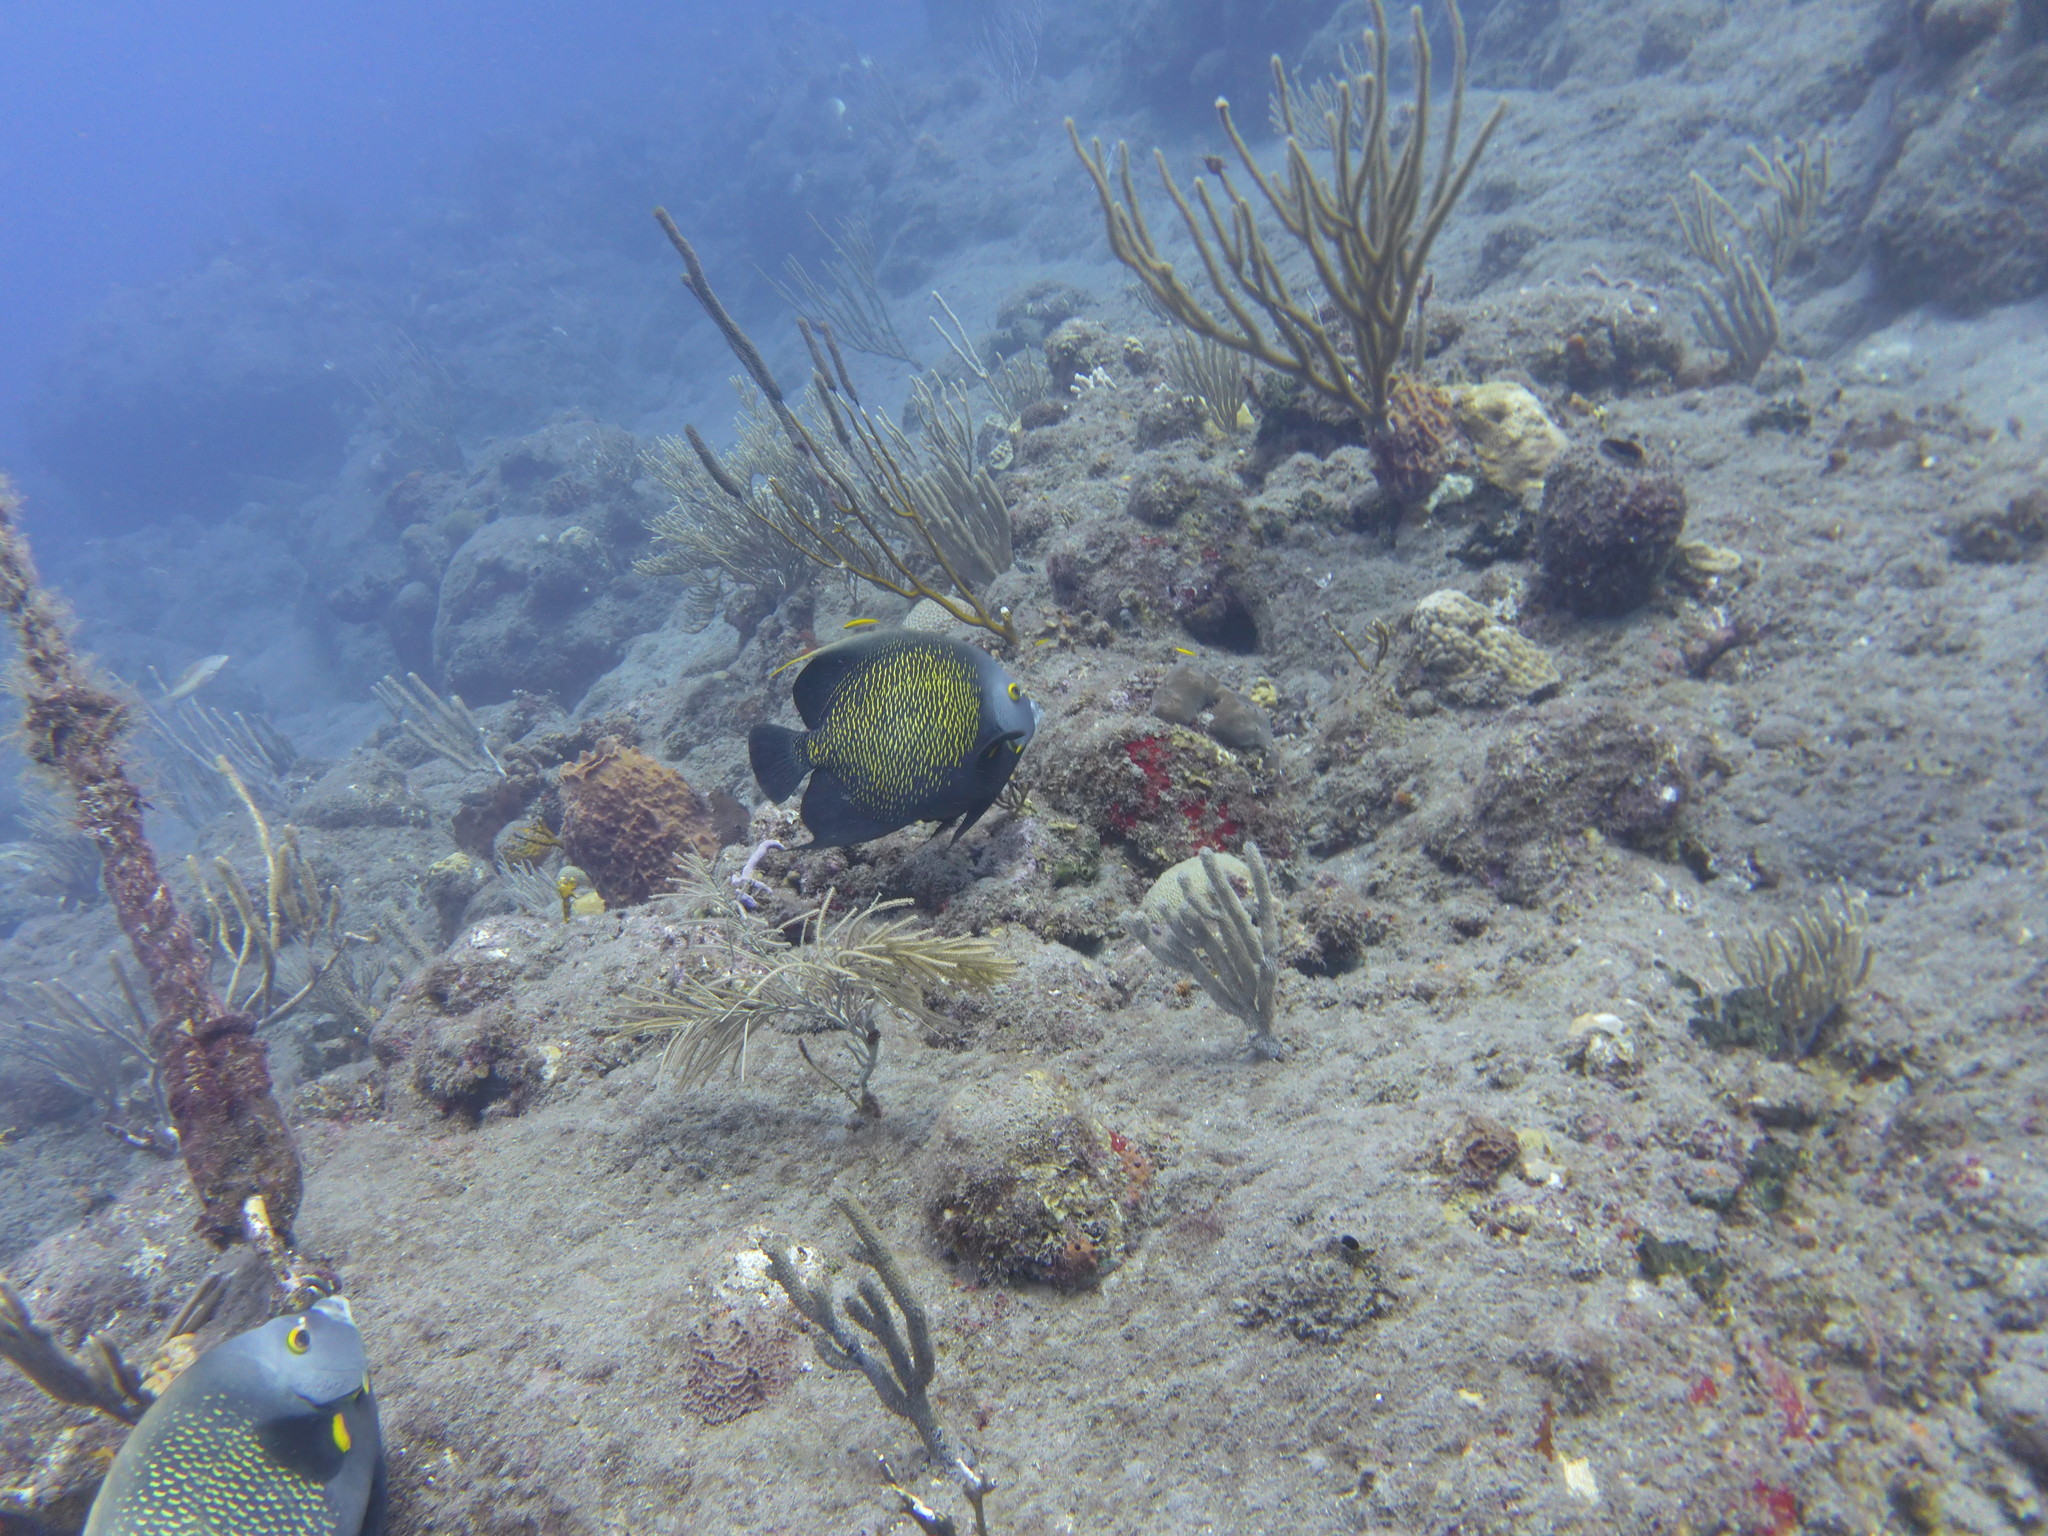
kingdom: Animalia
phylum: Chordata
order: Perciformes
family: Pomacanthidae
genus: Pomacanthus
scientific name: Pomacanthus paru
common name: French angelfish
